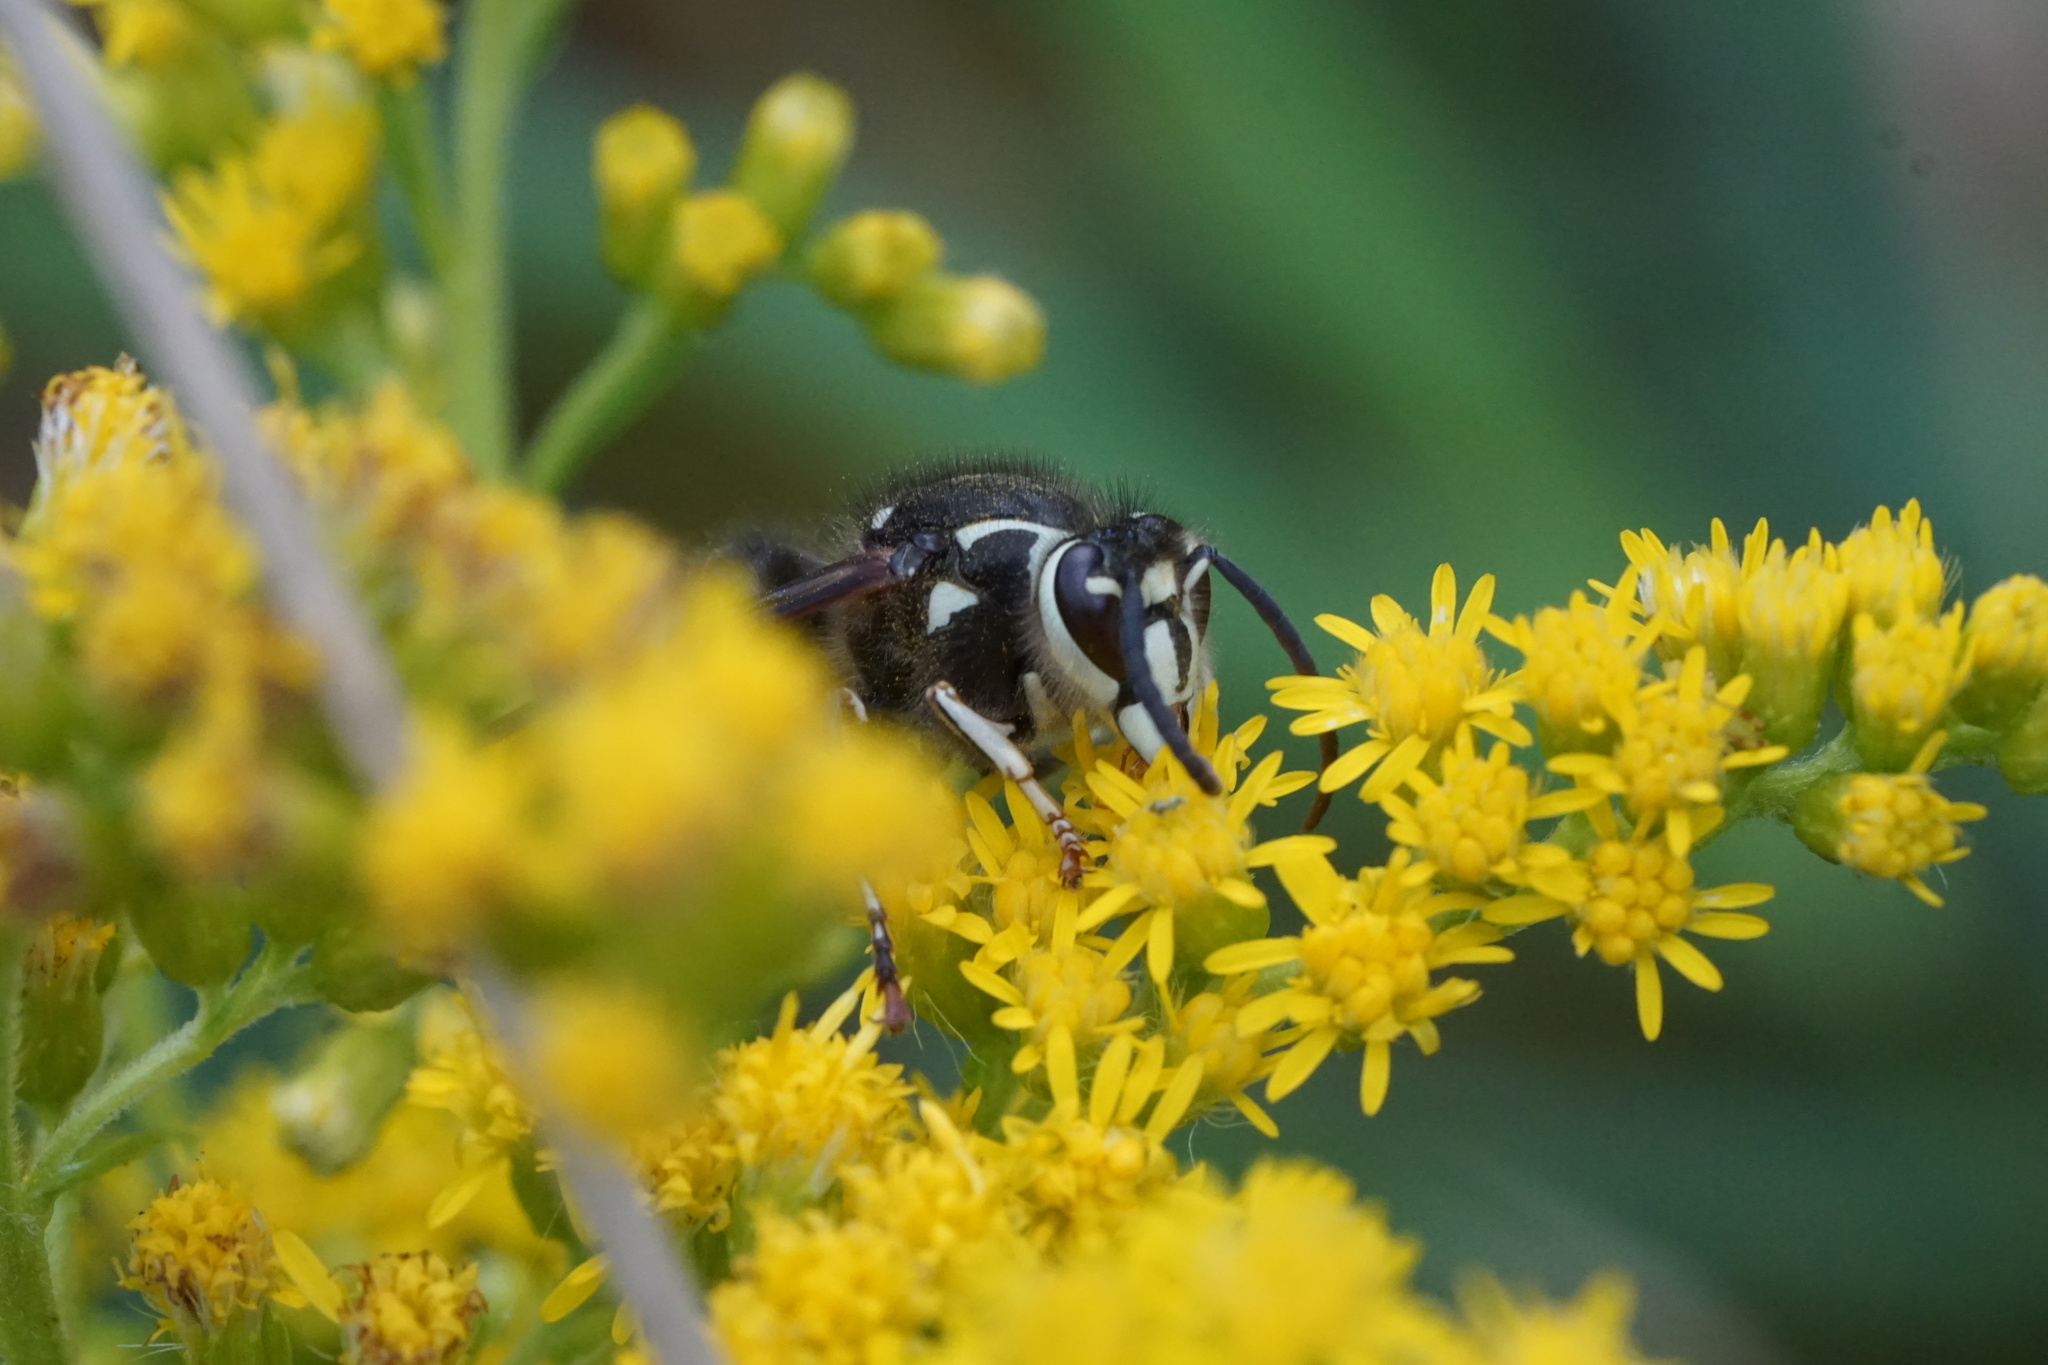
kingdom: Animalia
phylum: Arthropoda
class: Insecta
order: Hymenoptera
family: Vespidae
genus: Dolichovespula
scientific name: Dolichovespula maculata
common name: Bald-faced hornet
